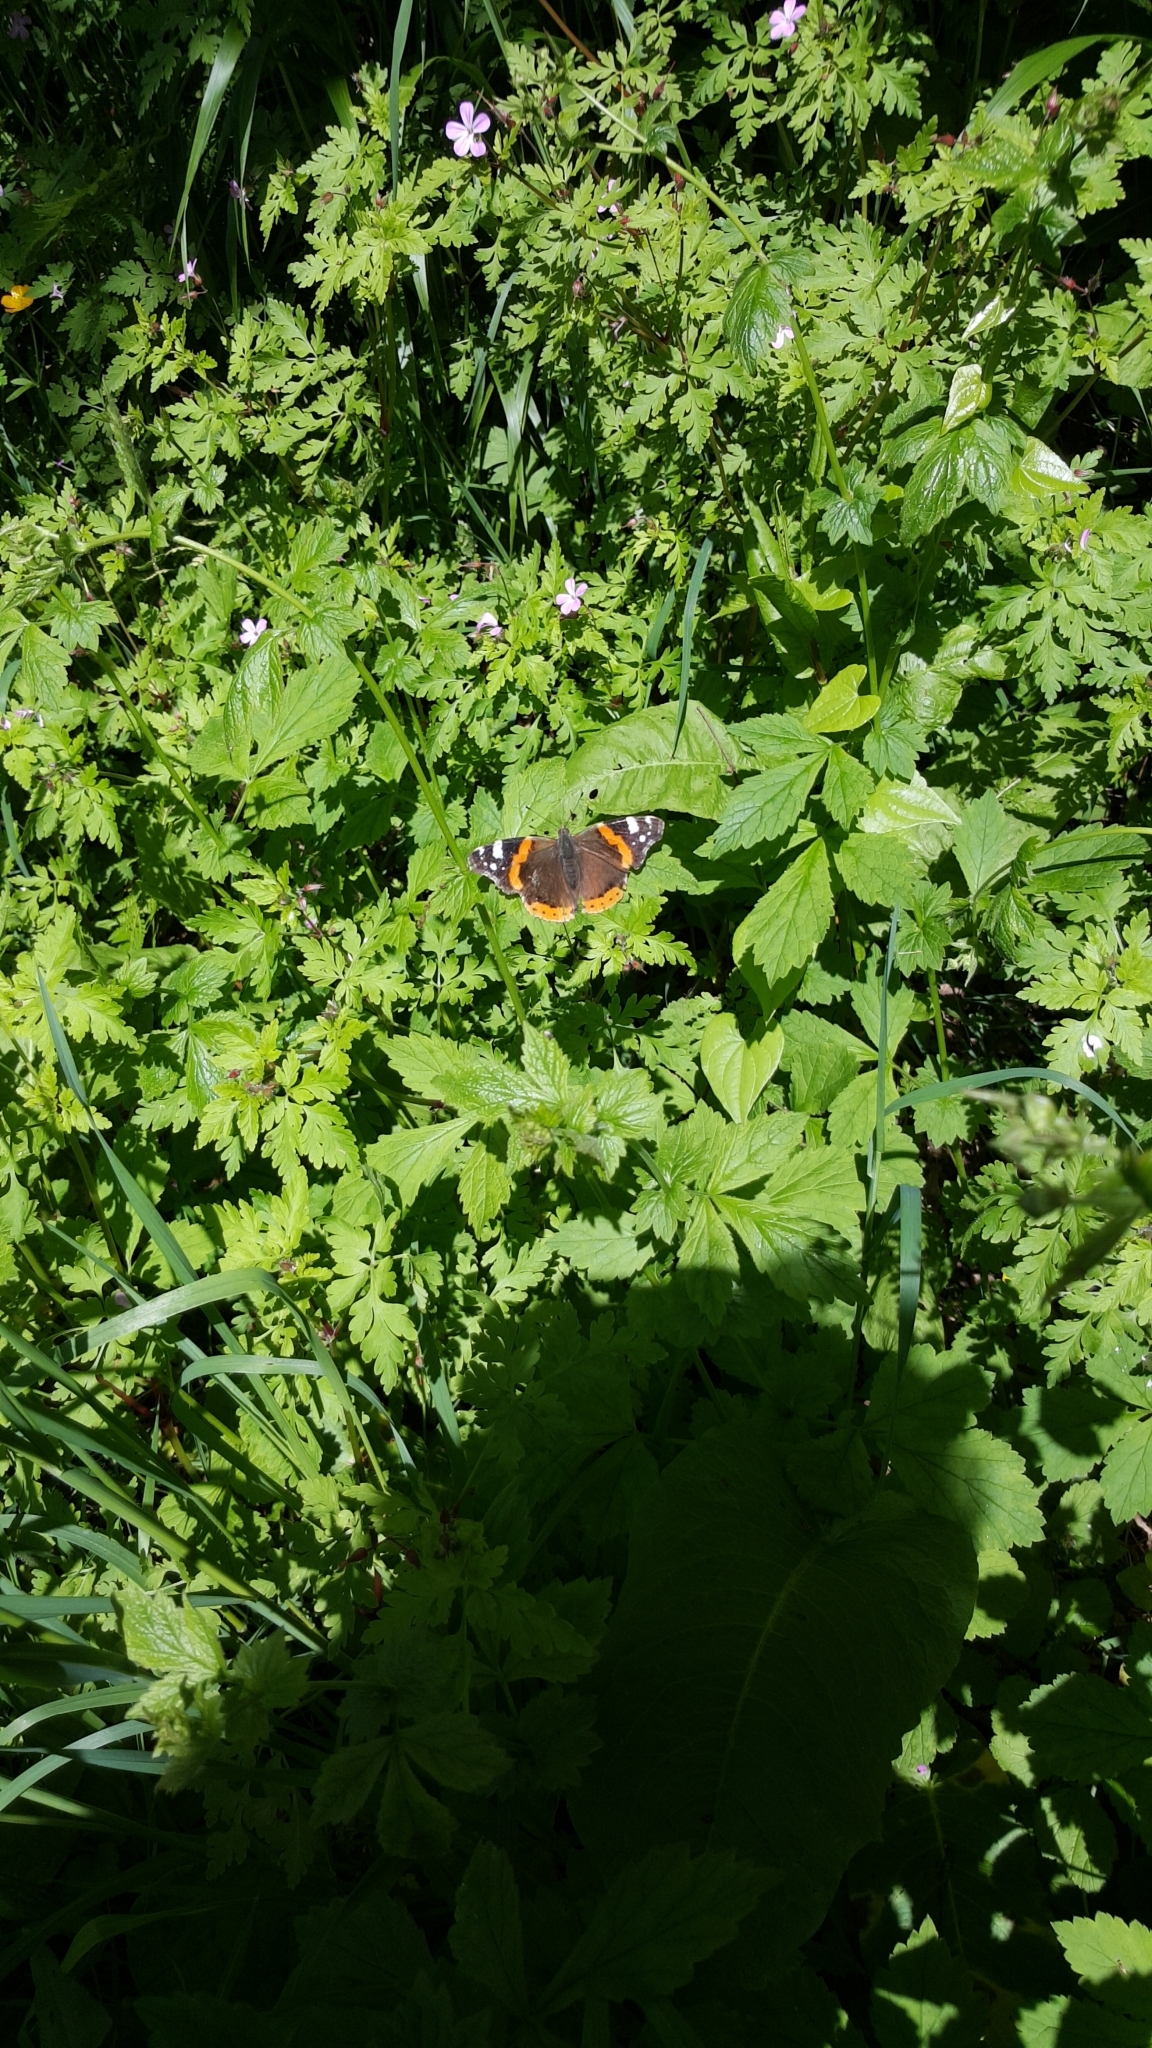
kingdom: Animalia
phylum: Arthropoda
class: Insecta
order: Lepidoptera
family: Nymphalidae
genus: Vanessa
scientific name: Vanessa atalanta
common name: Red admiral
